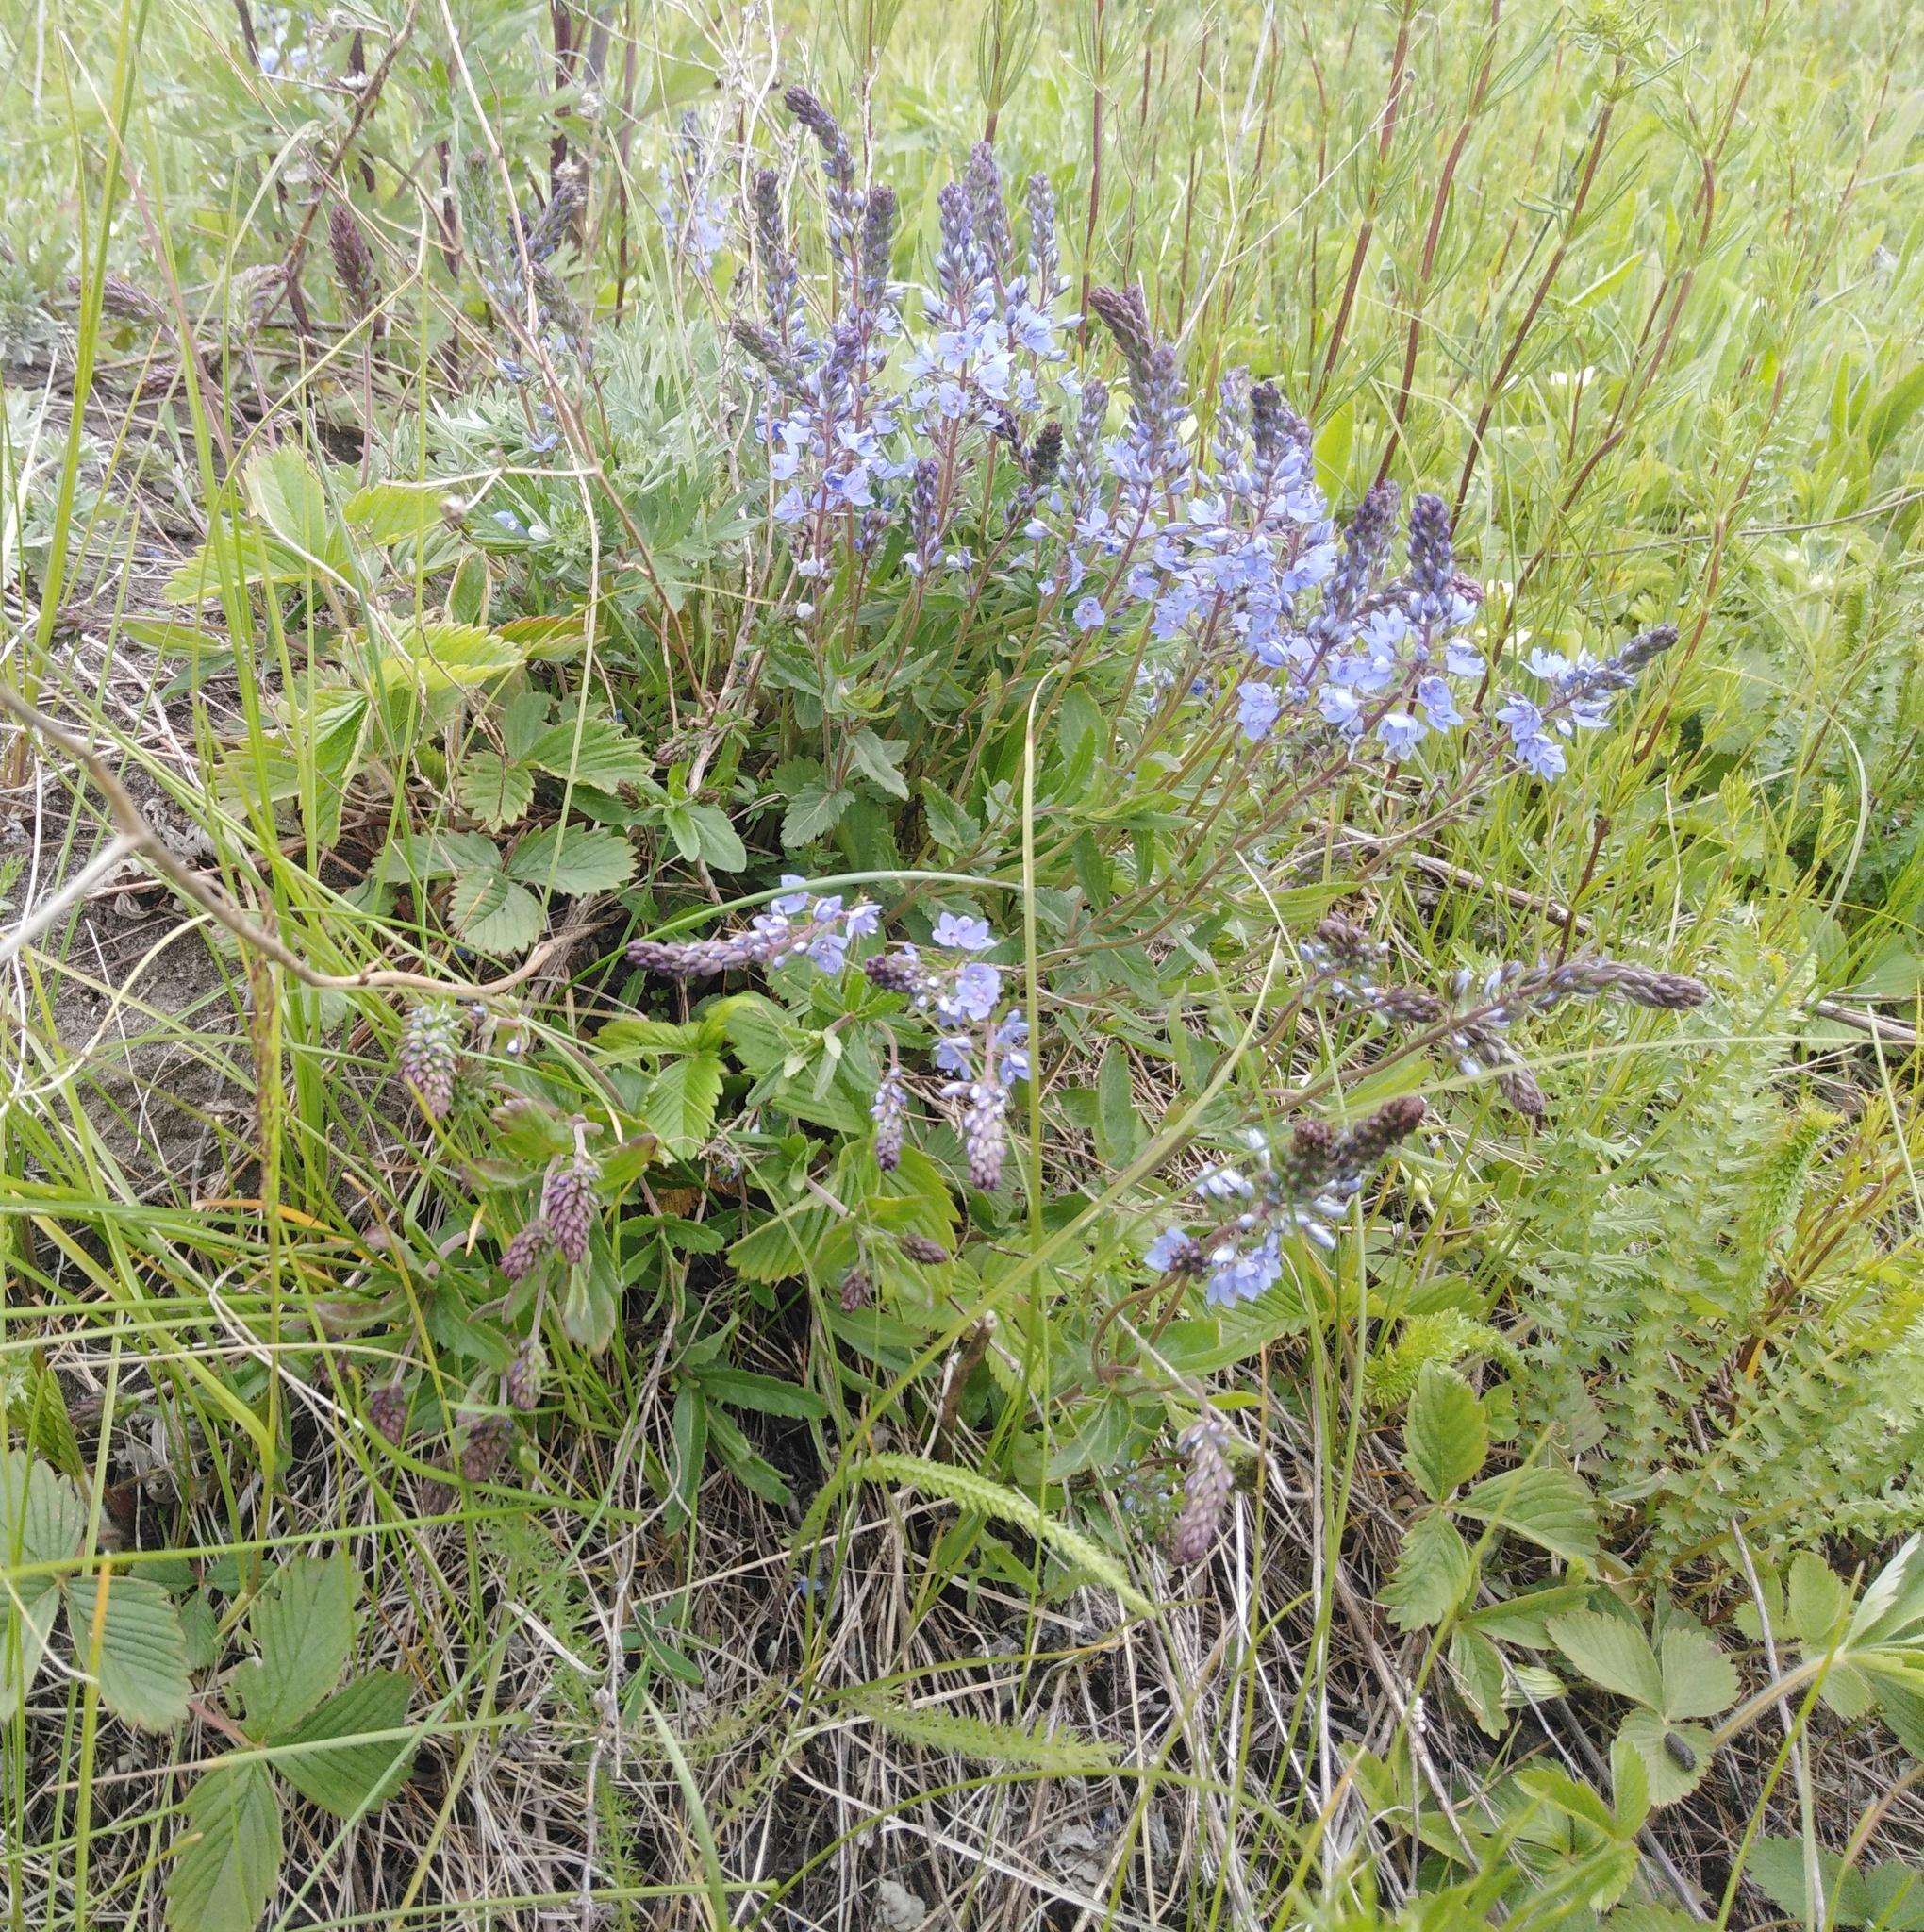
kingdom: Plantae
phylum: Tracheophyta
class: Magnoliopsida
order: Lamiales
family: Plantaginaceae
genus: Veronica
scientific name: Veronica prostrata
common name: Prostrate speedwell
